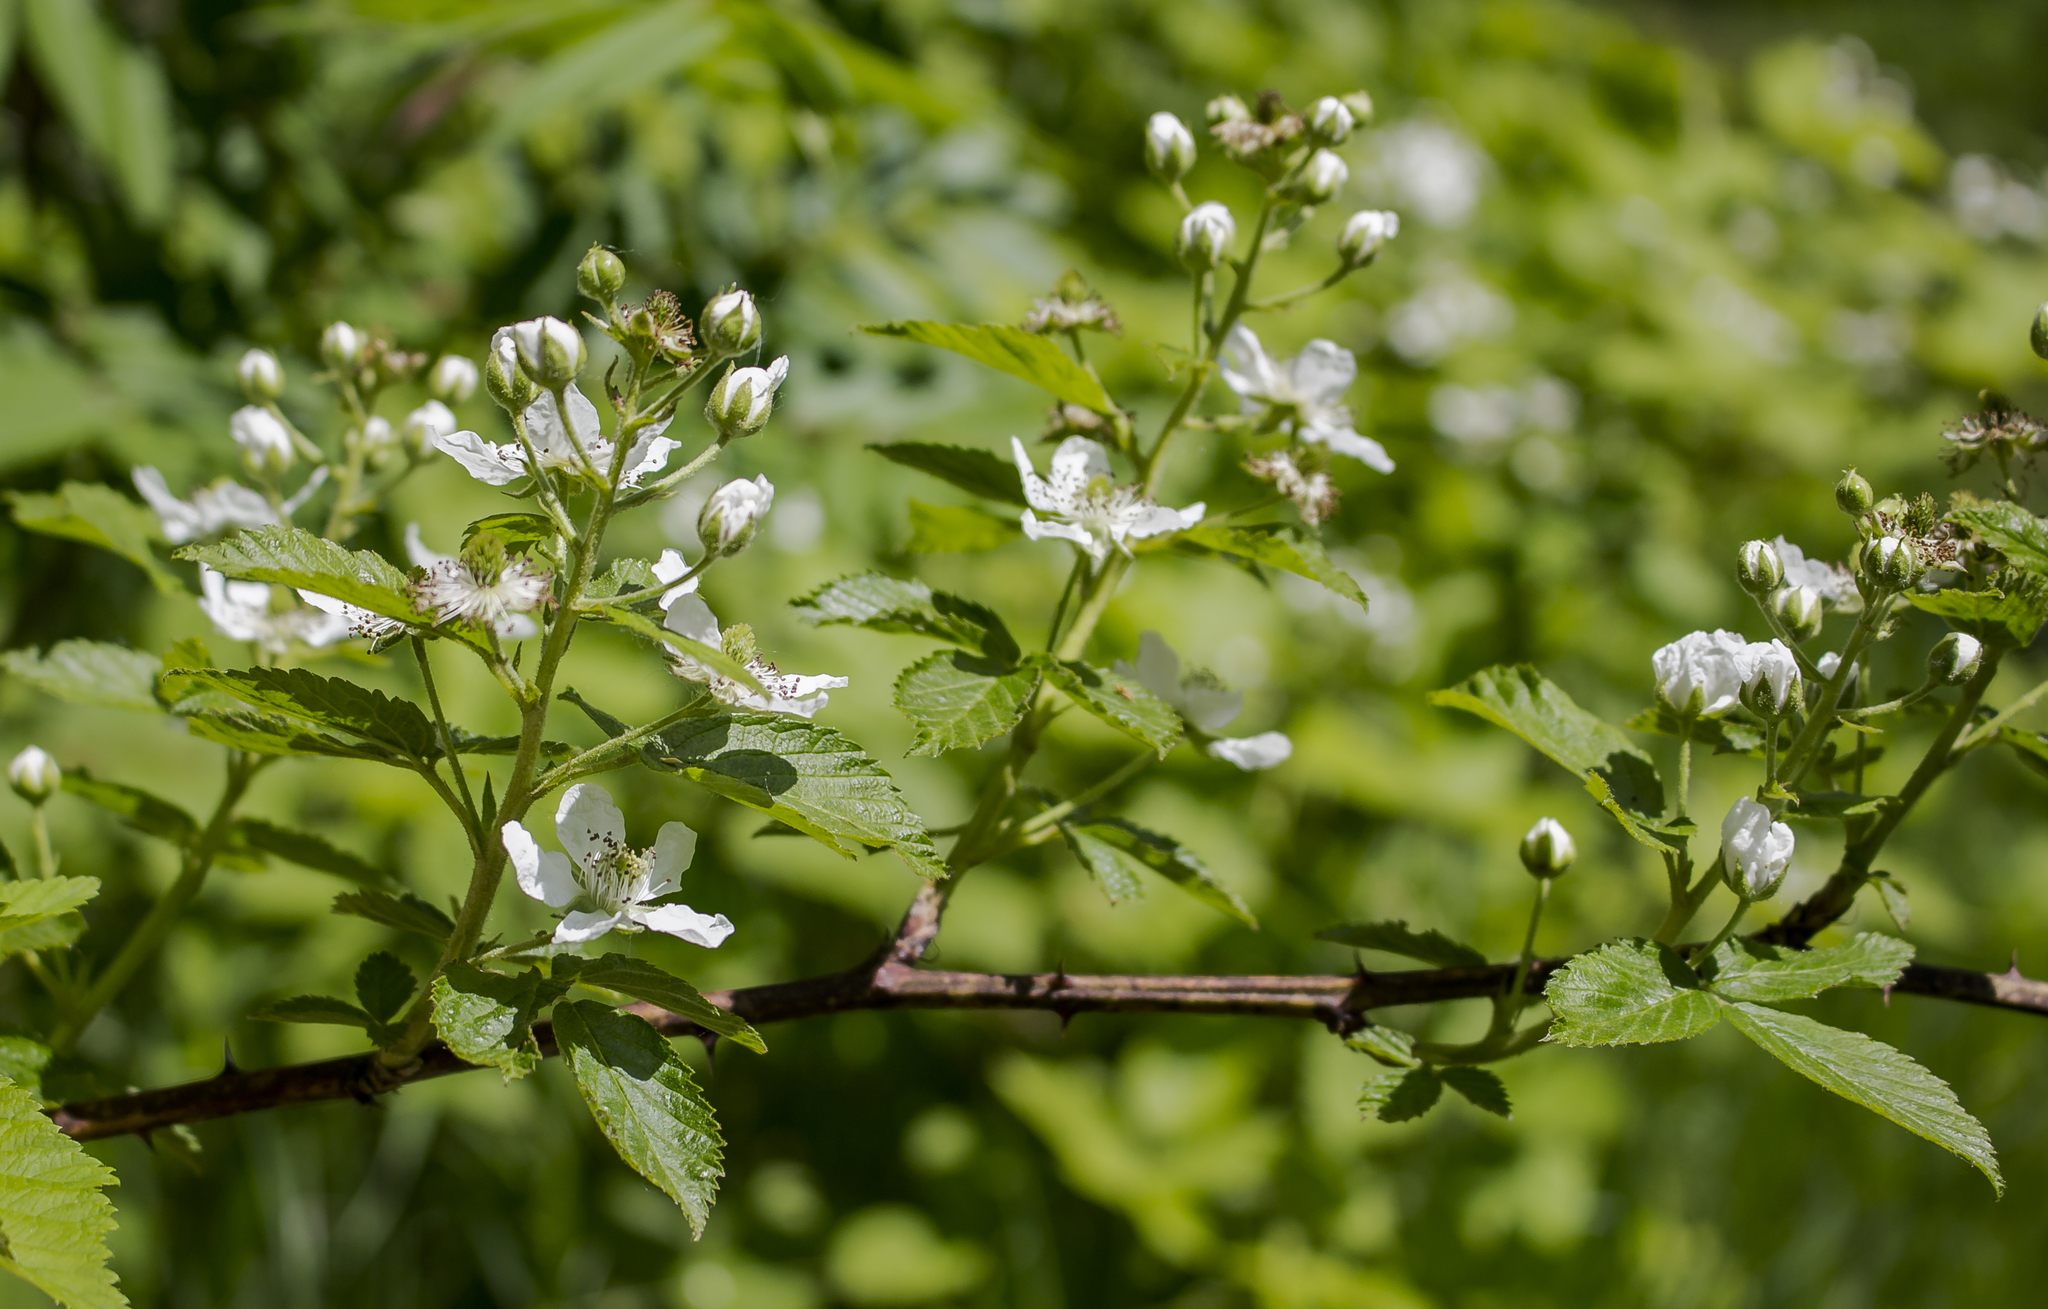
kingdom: Plantae
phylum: Tracheophyta
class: Magnoliopsida
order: Rosales
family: Rosaceae
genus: Rubus
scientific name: Rubus allegheniensis
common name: Allegheny blackberry
